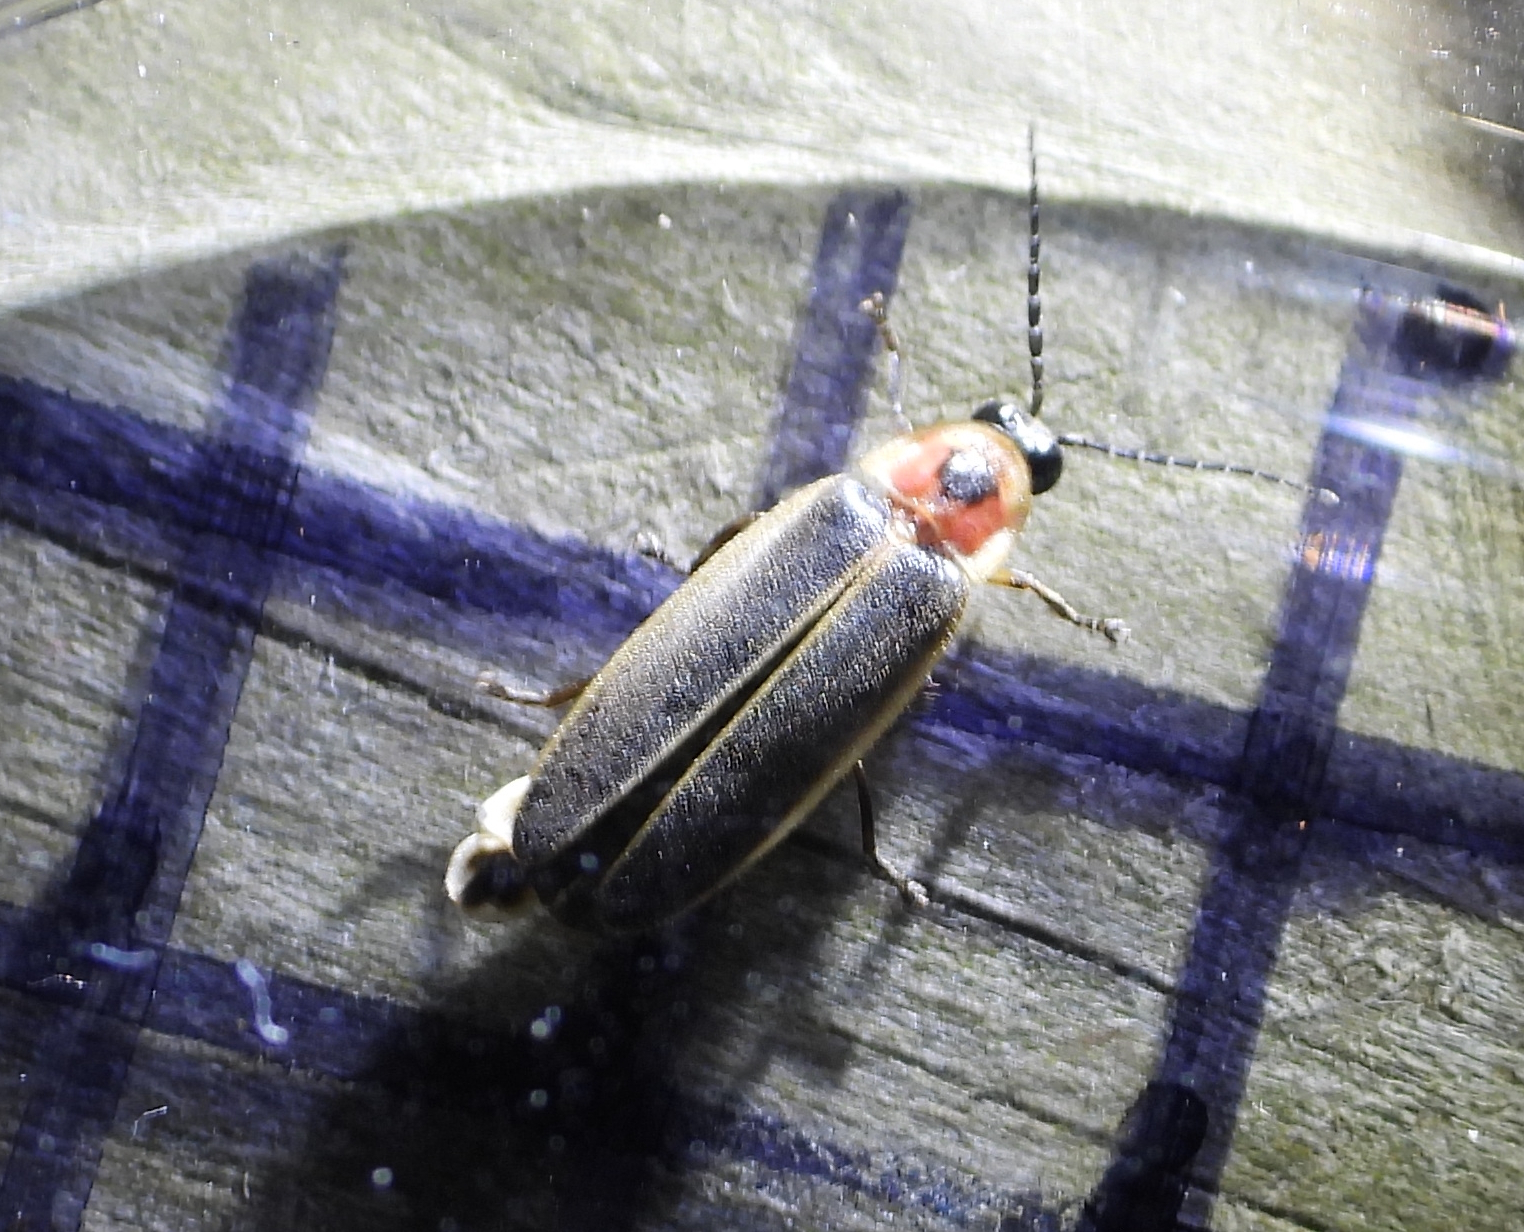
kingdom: Animalia
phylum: Arthropoda
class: Insecta
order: Coleoptera
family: Lampyridae
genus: Photinus
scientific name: Photinus pyralis
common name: Big dipper firefly
